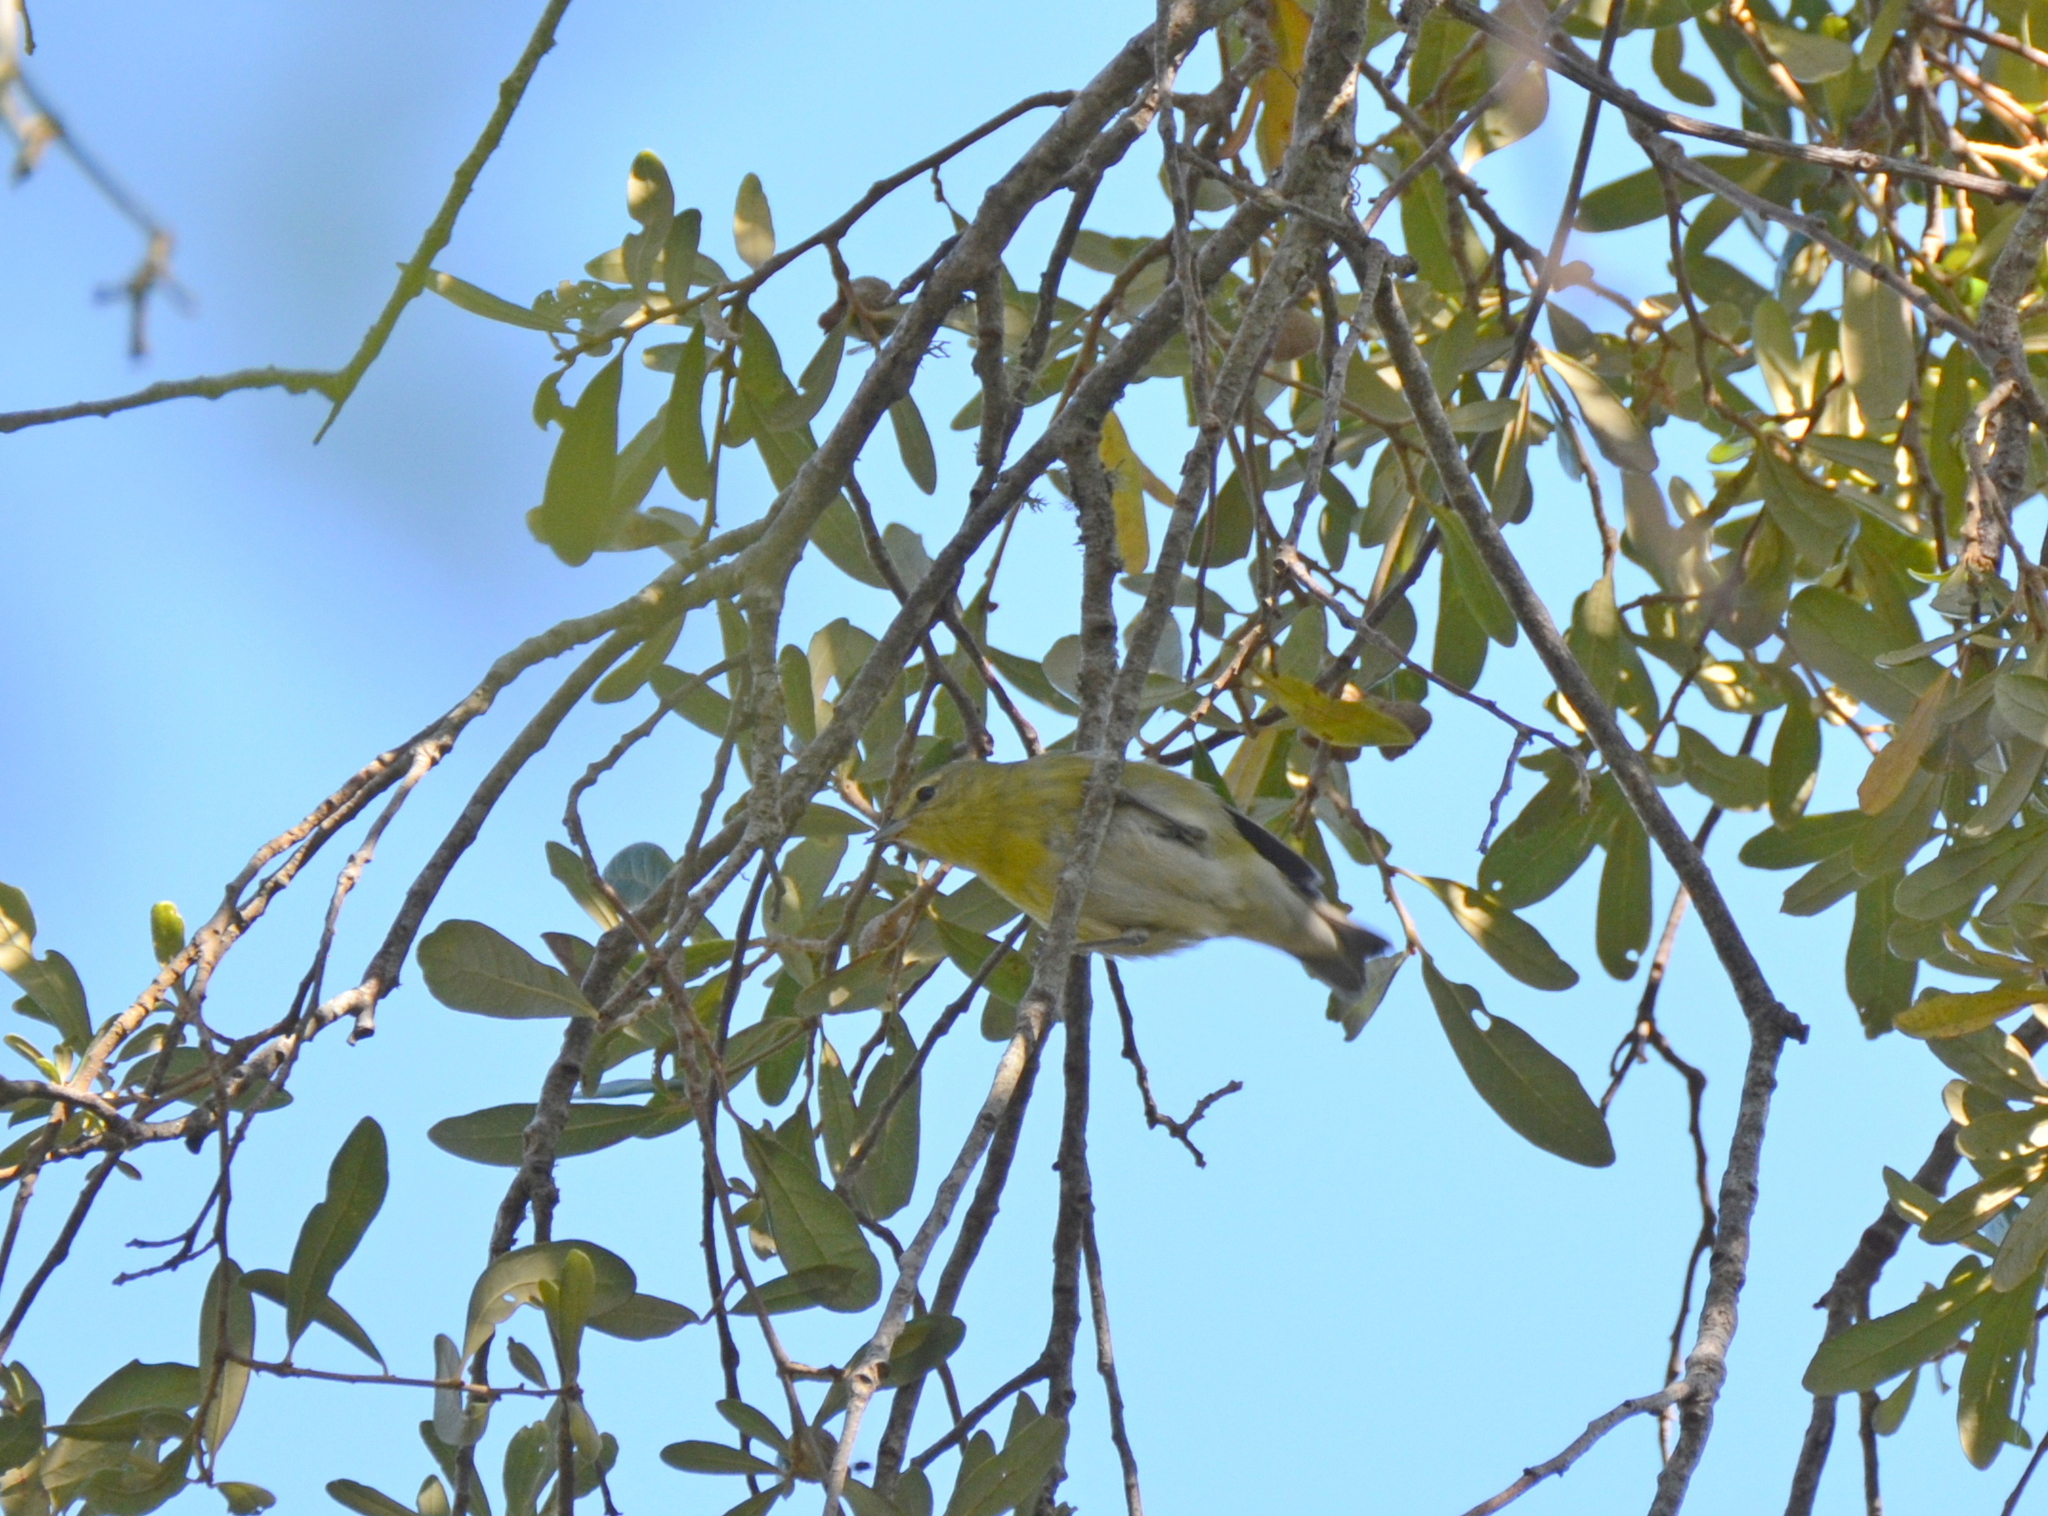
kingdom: Animalia
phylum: Chordata
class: Aves
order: Passeriformes
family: Parulidae
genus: Leiothlypis
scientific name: Leiothlypis peregrina
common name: Tennessee warbler
